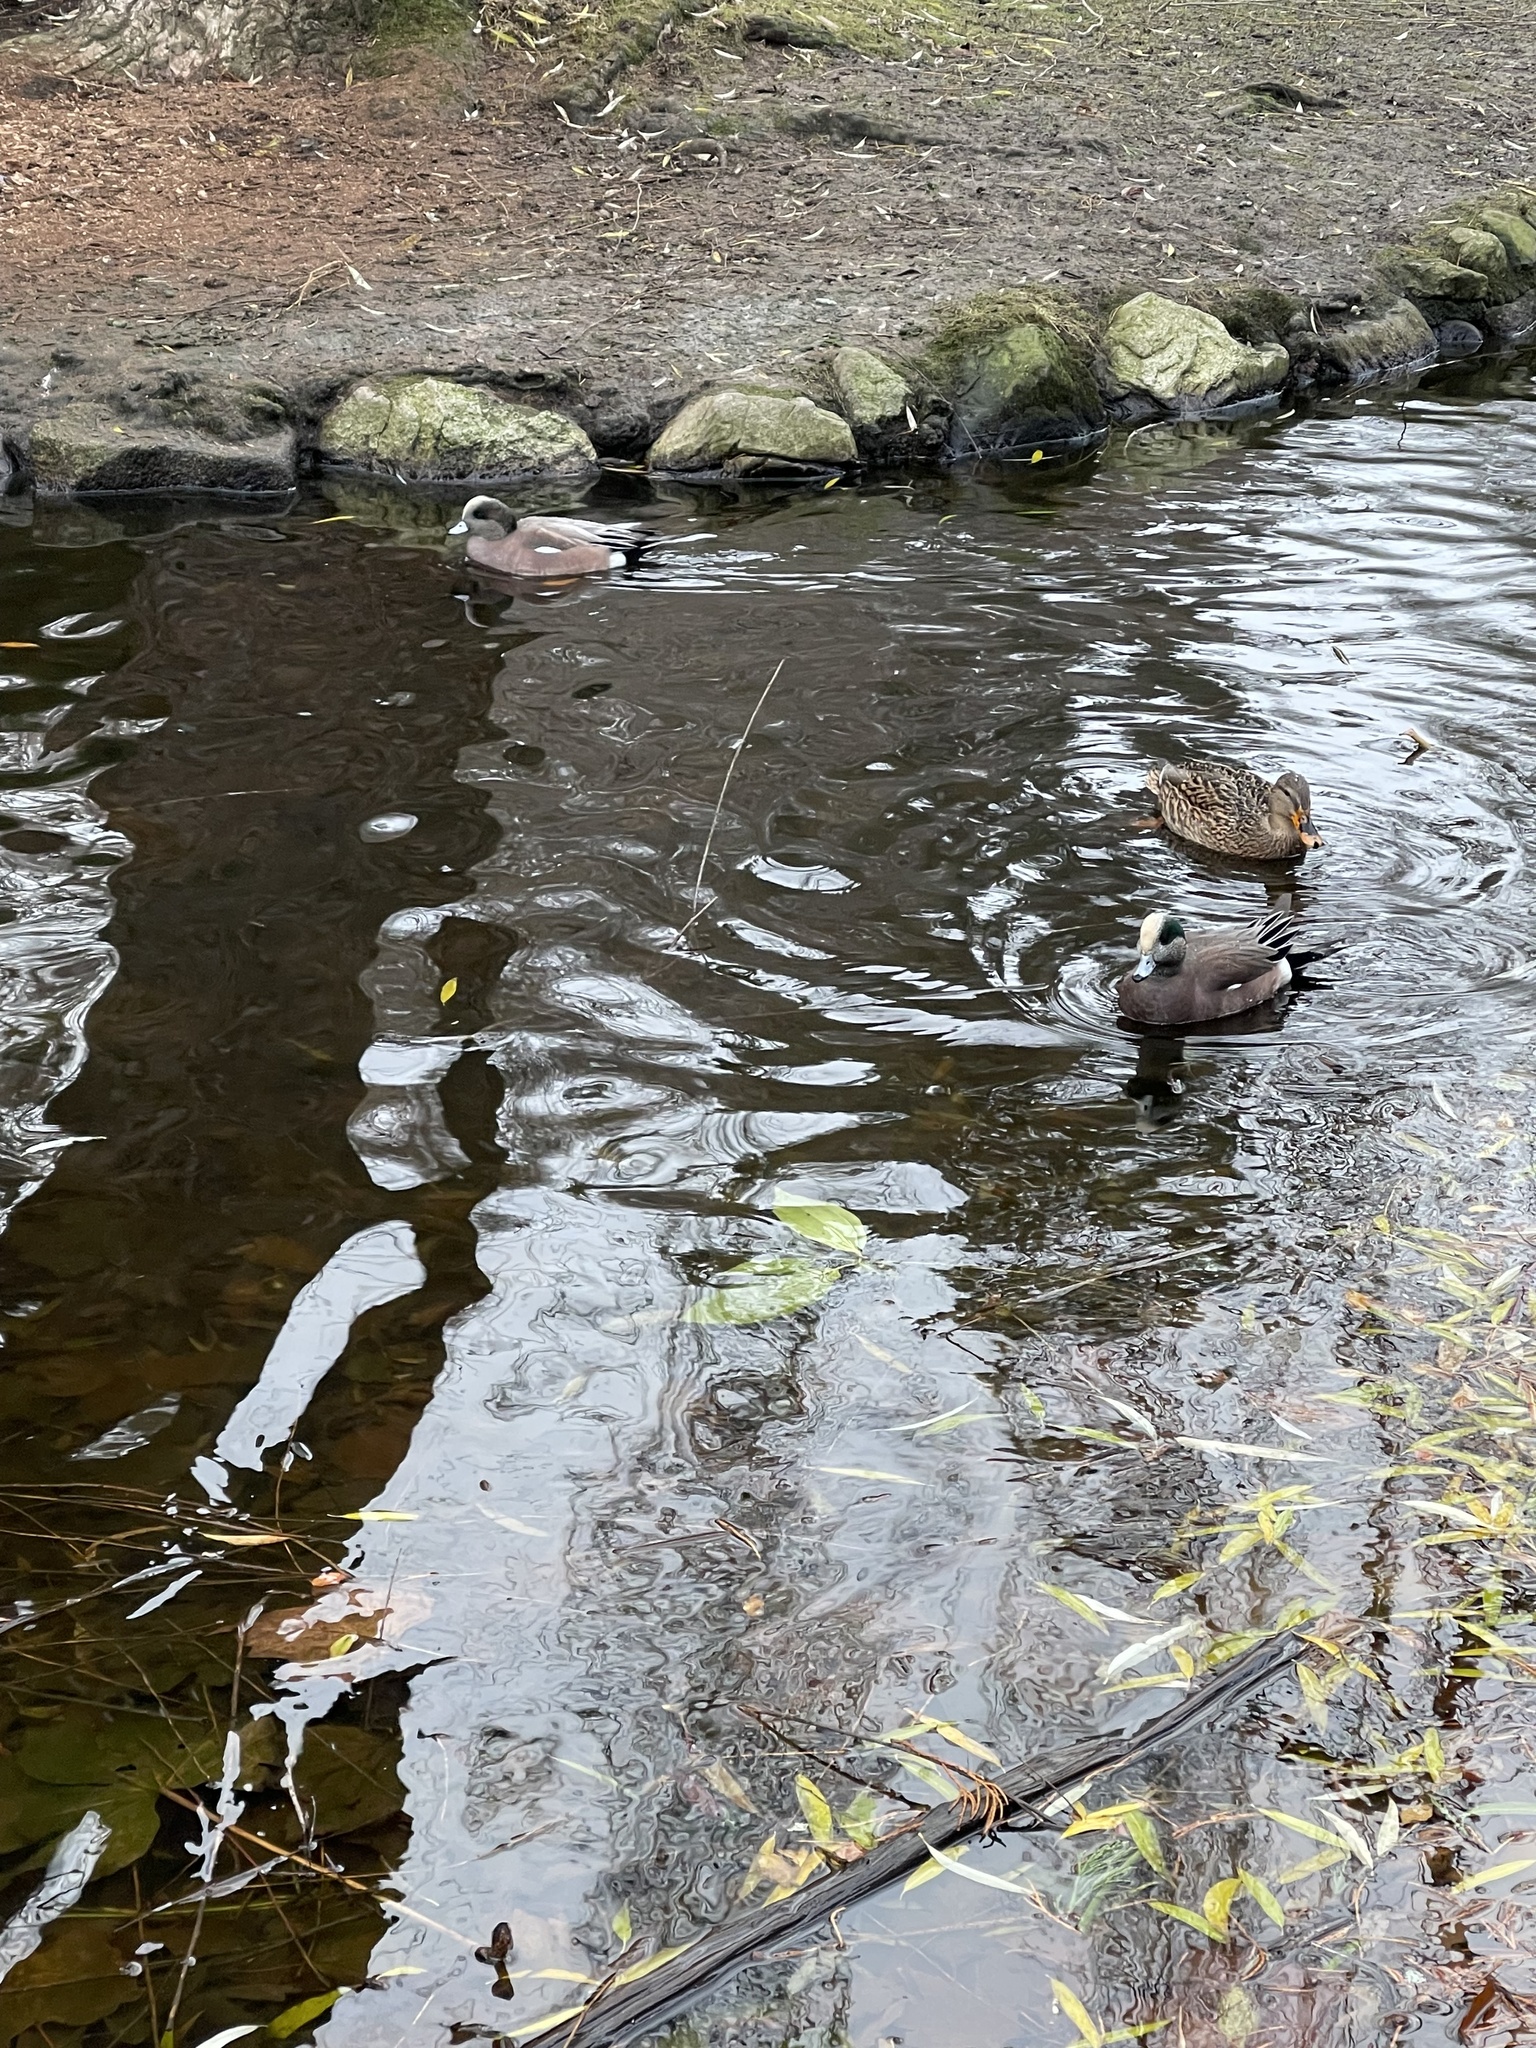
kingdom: Animalia
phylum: Chordata
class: Aves
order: Anseriformes
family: Anatidae
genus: Mareca
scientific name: Mareca americana
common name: American wigeon
